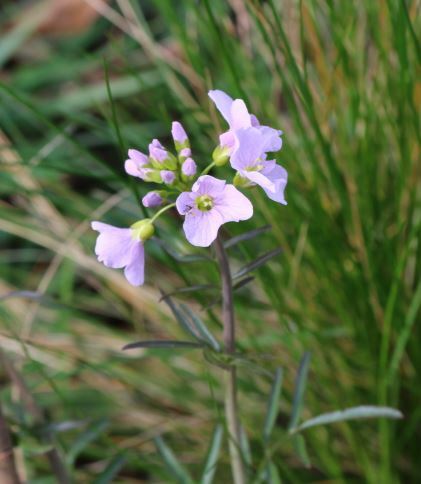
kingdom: Plantae
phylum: Tracheophyta
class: Magnoliopsida
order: Brassicales
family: Brassicaceae
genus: Cardamine
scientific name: Cardamine pratensis
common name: Cuckoo flower
